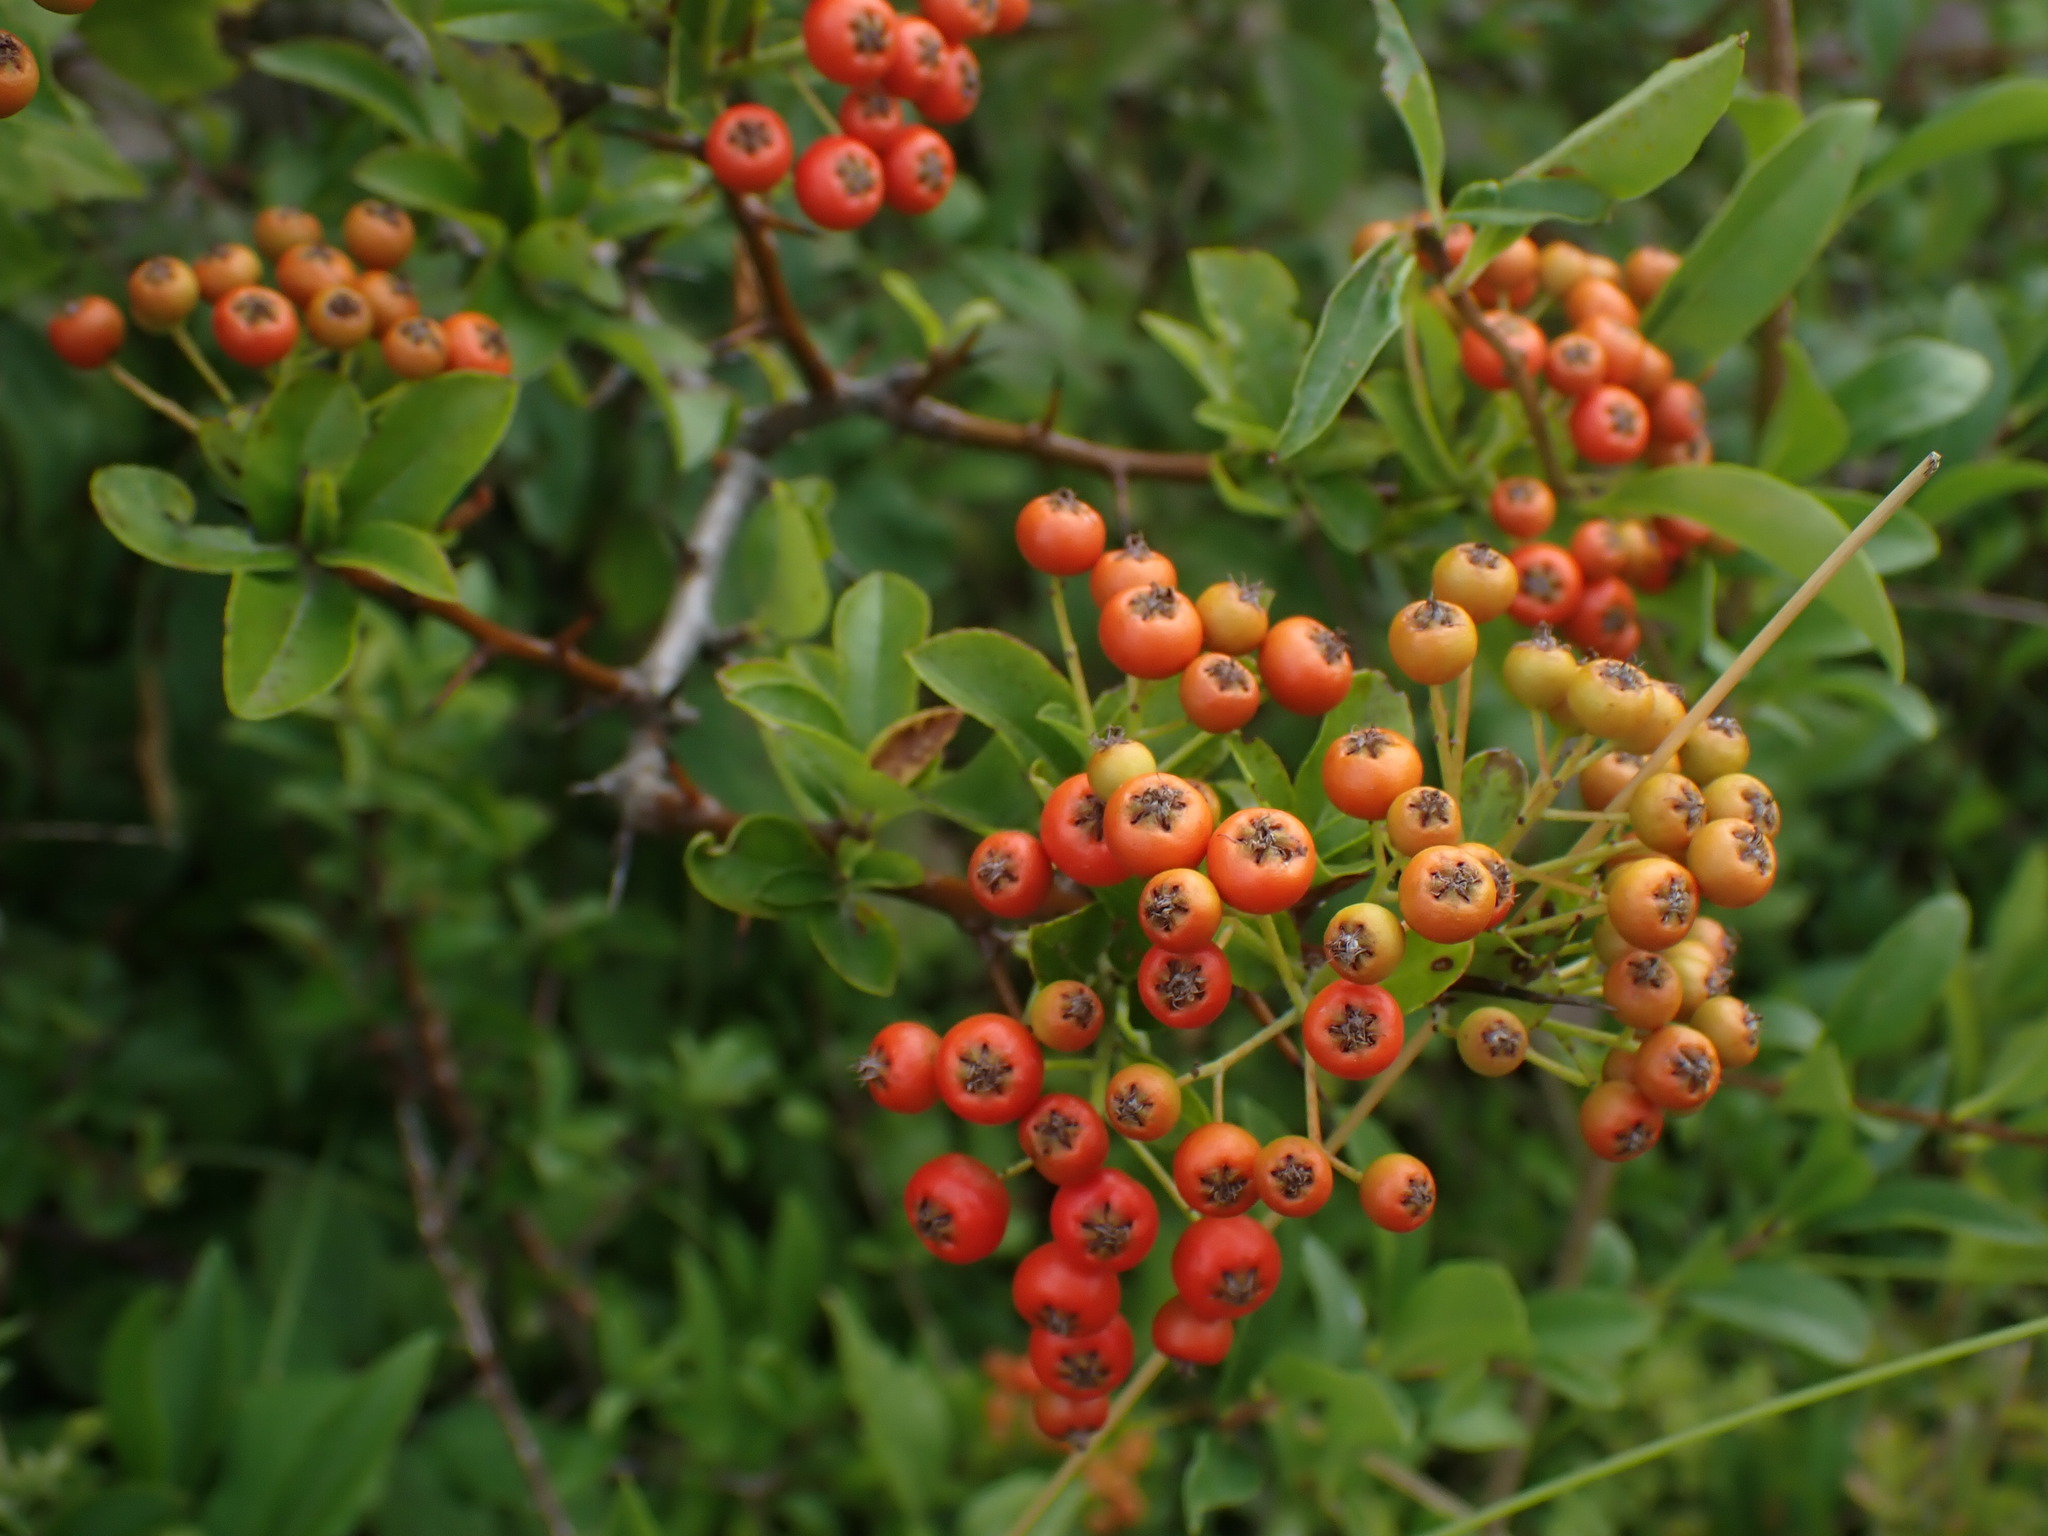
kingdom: Plantae
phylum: Tracheophyta
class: Magnoliopsida
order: Rosales
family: Rosaceae
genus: Pyracantha
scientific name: Pyracantha coccinea
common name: Firethorn
